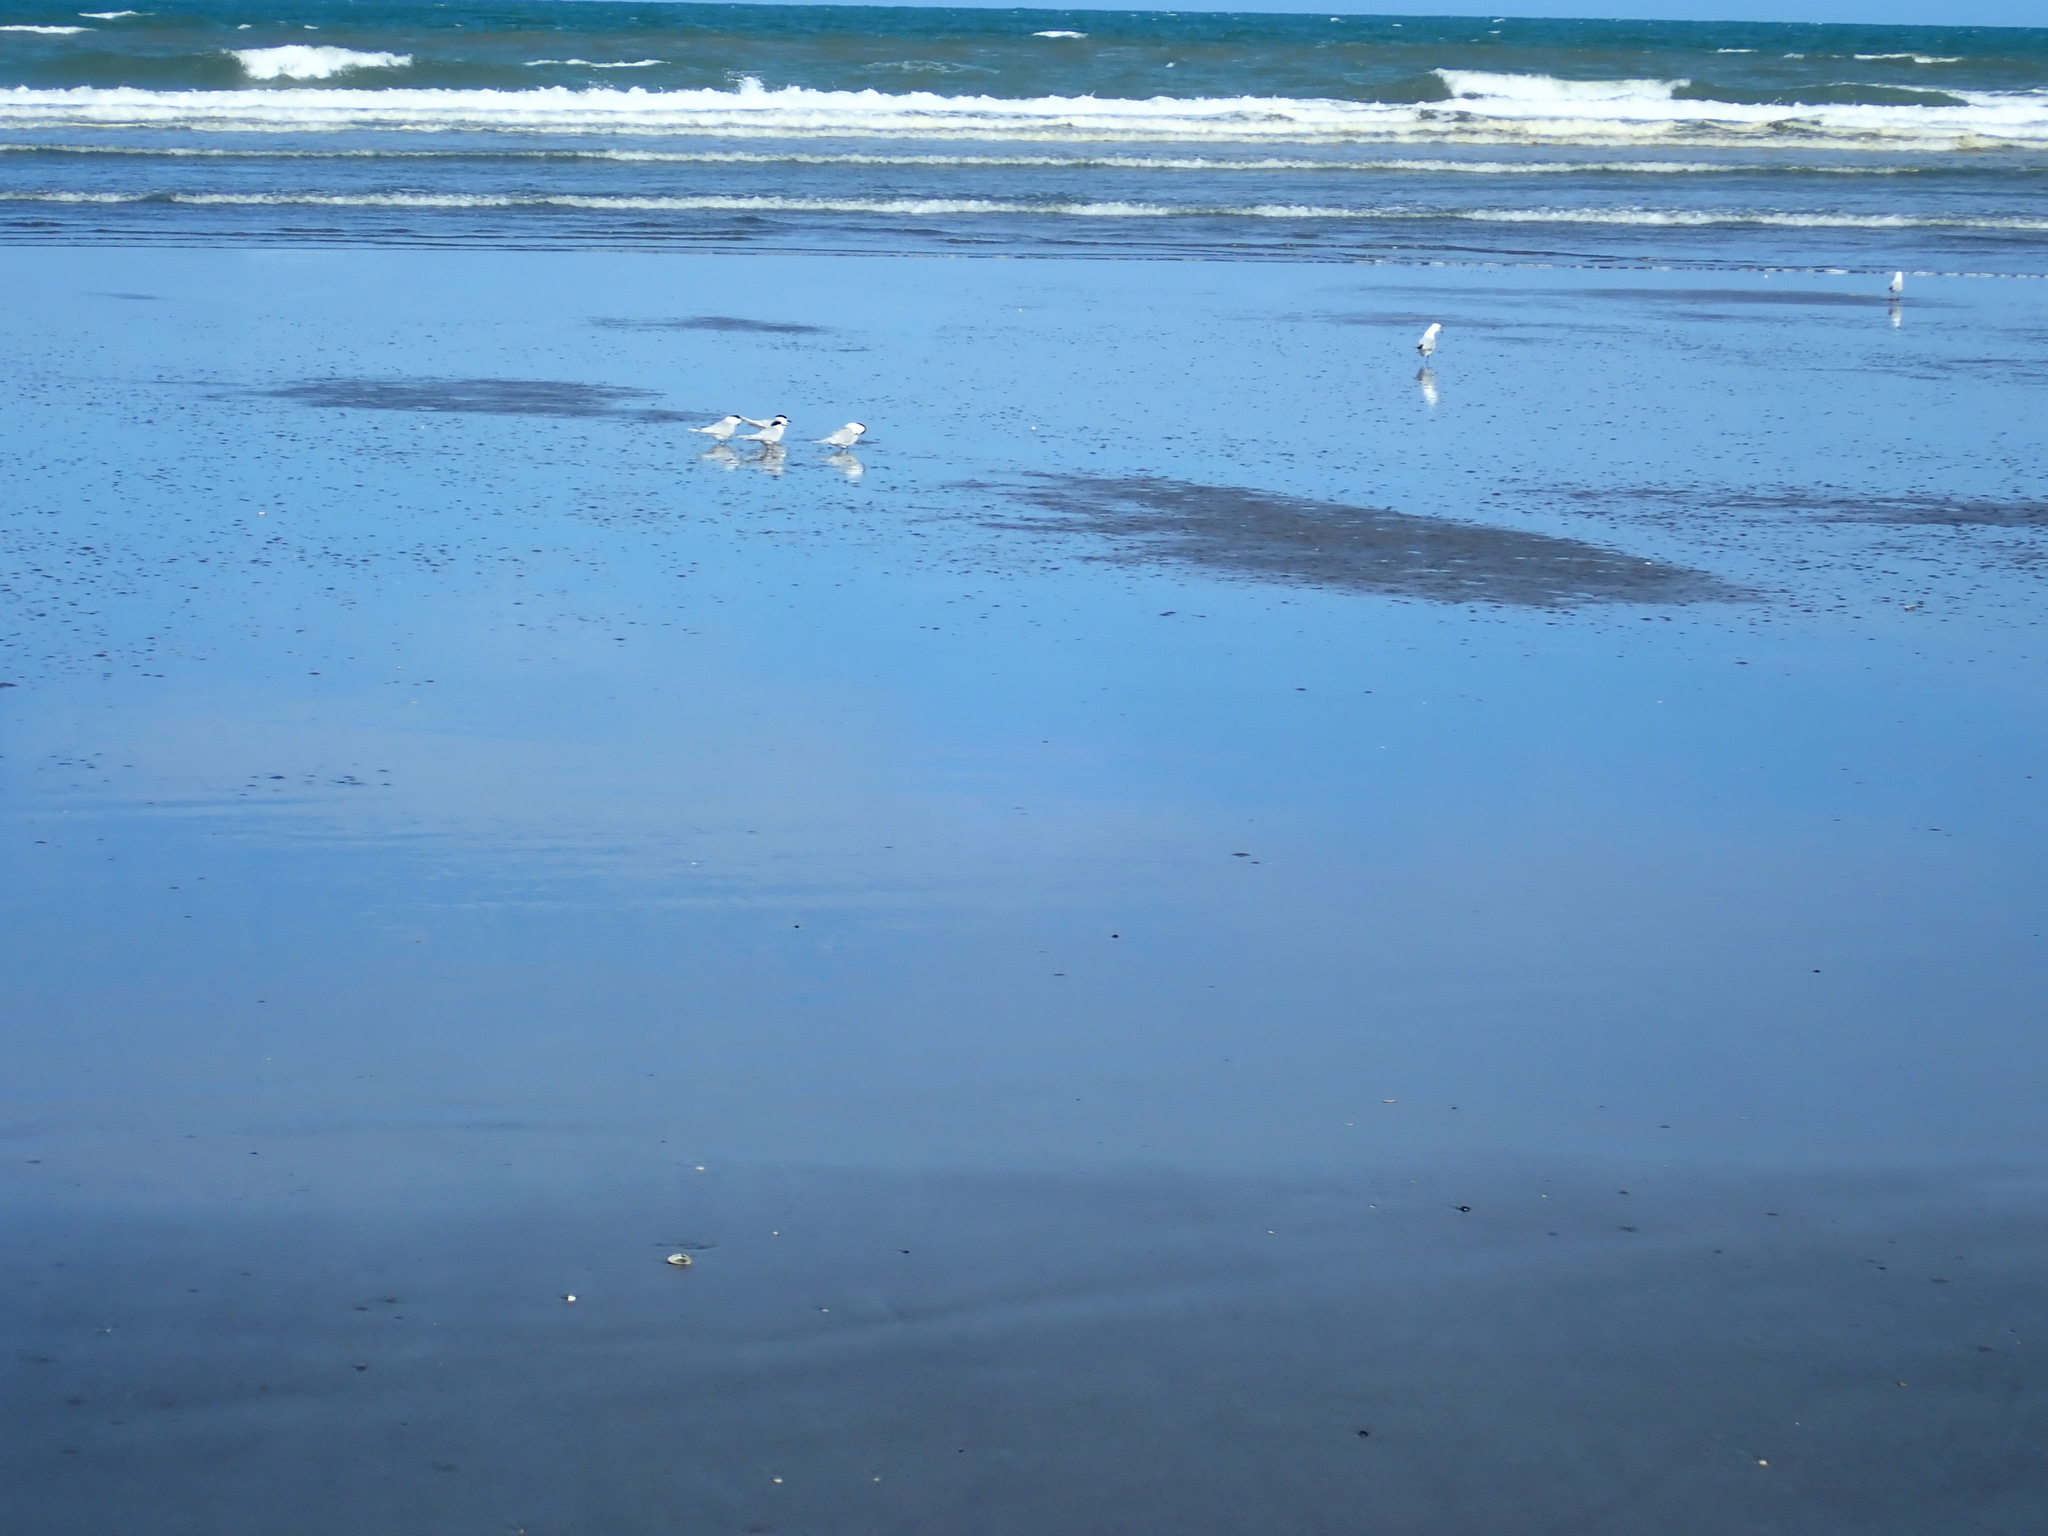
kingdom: Animalia
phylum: Chordata
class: Aves
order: Charadriiformes
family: Laridae
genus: Sterna
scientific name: Sterna striata
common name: White-fronted tern
